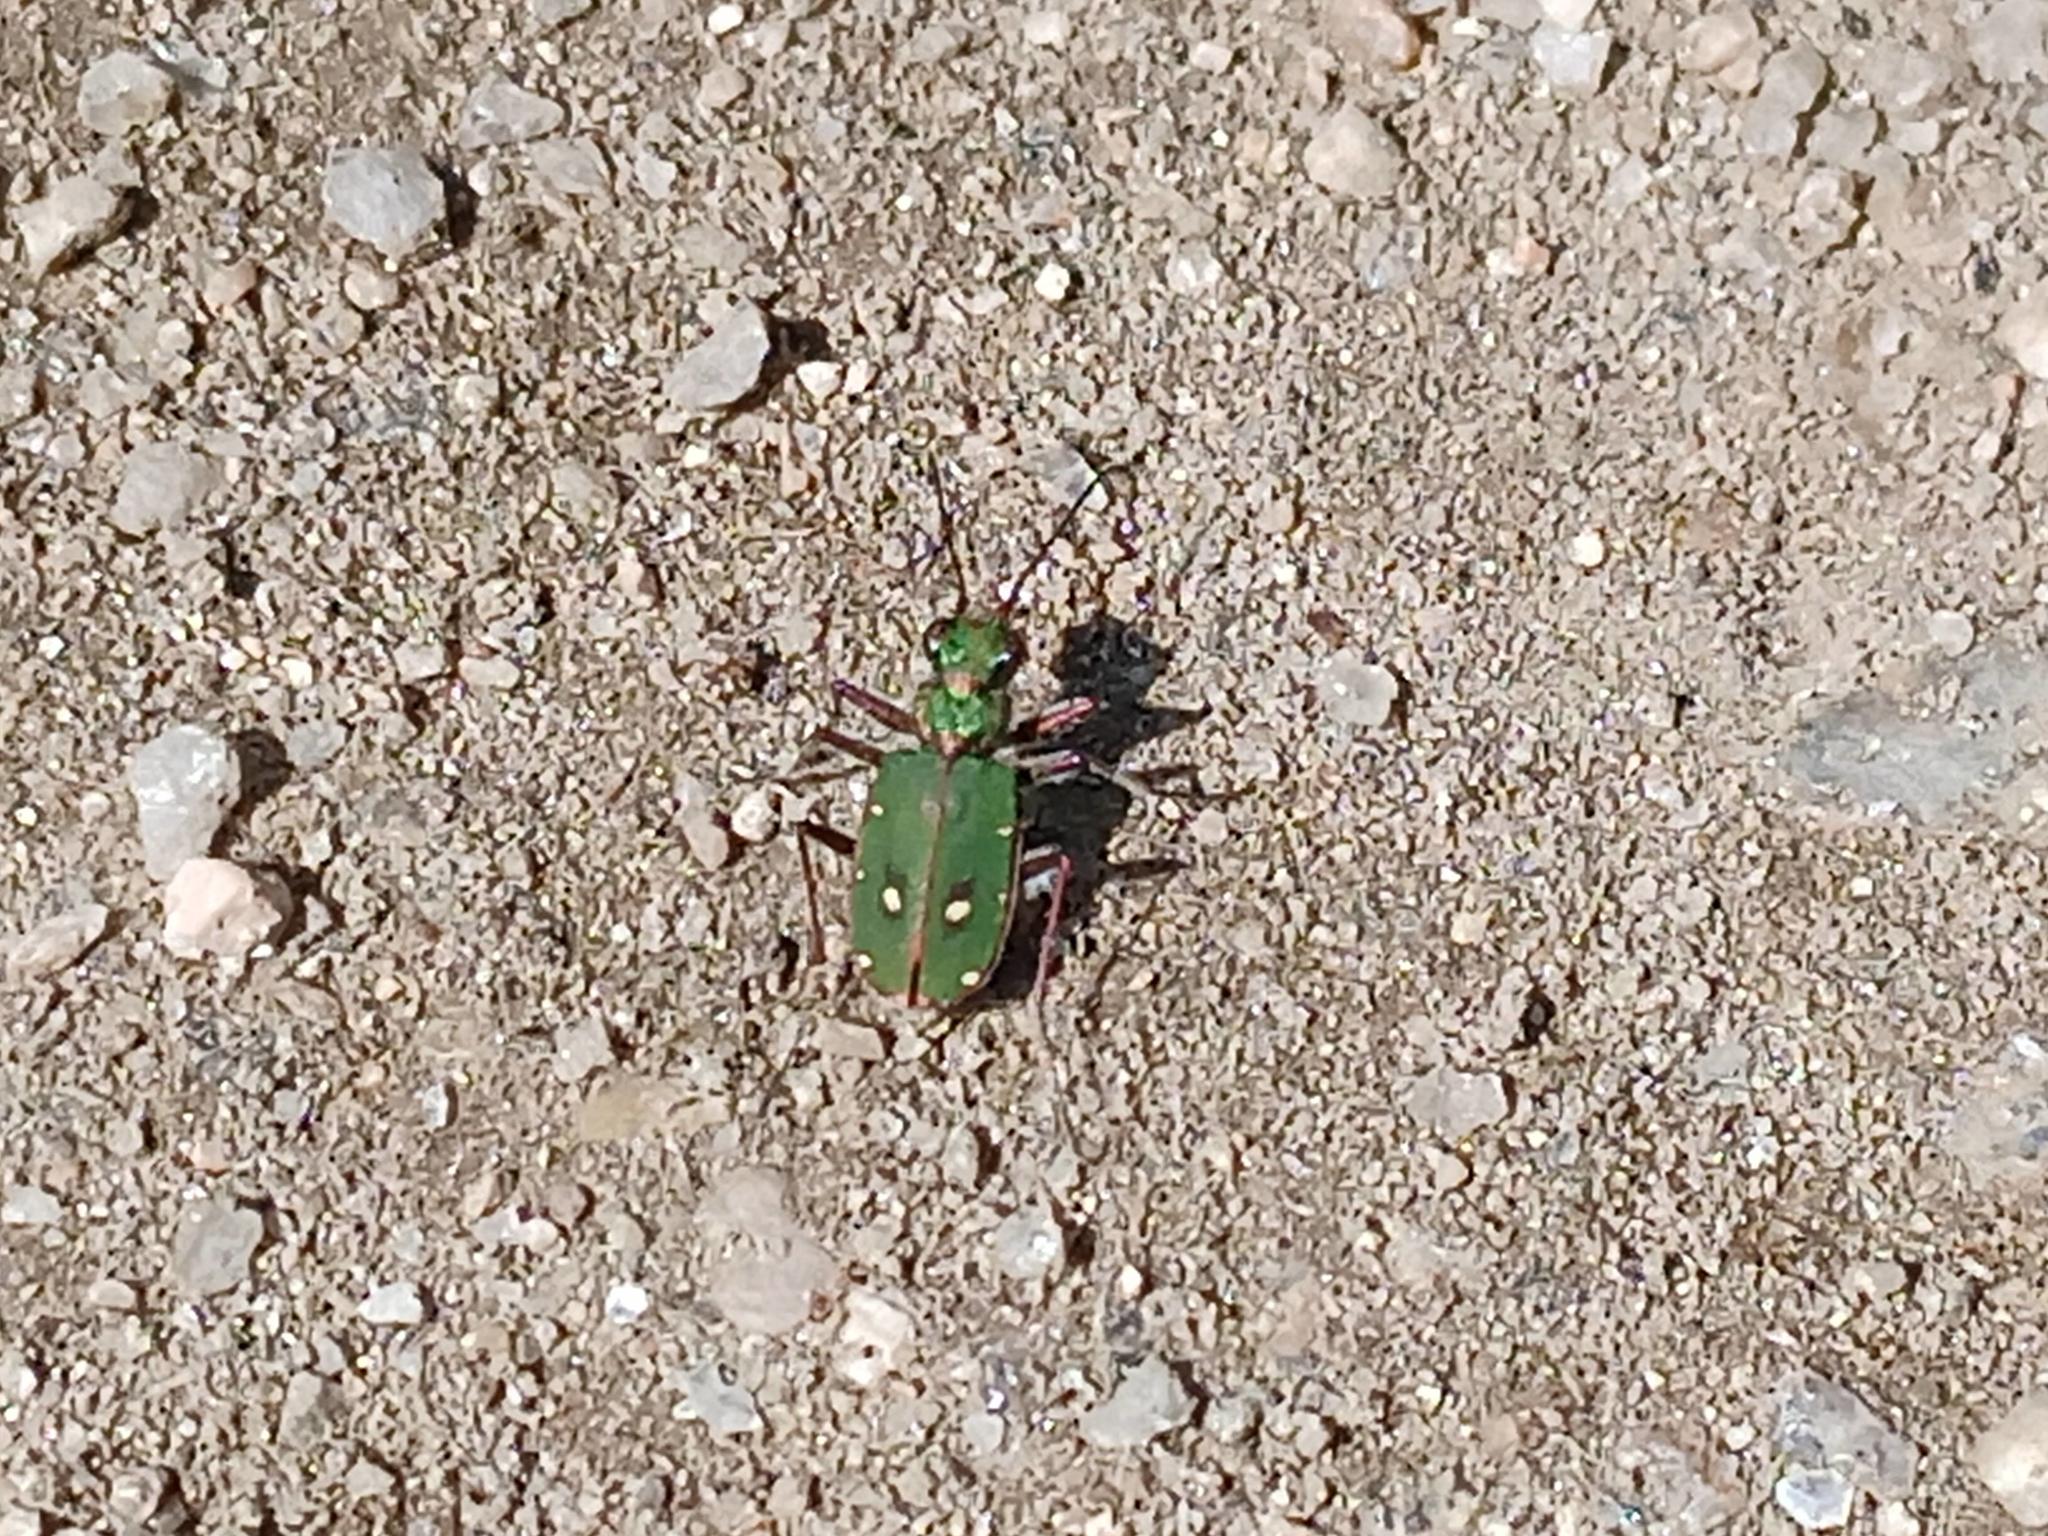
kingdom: Animalia
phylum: Arthropoda
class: Insecta
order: Coleoptera
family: Carabidae
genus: Cicindela
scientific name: Cicindela campestris
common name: Common tiger beetle
